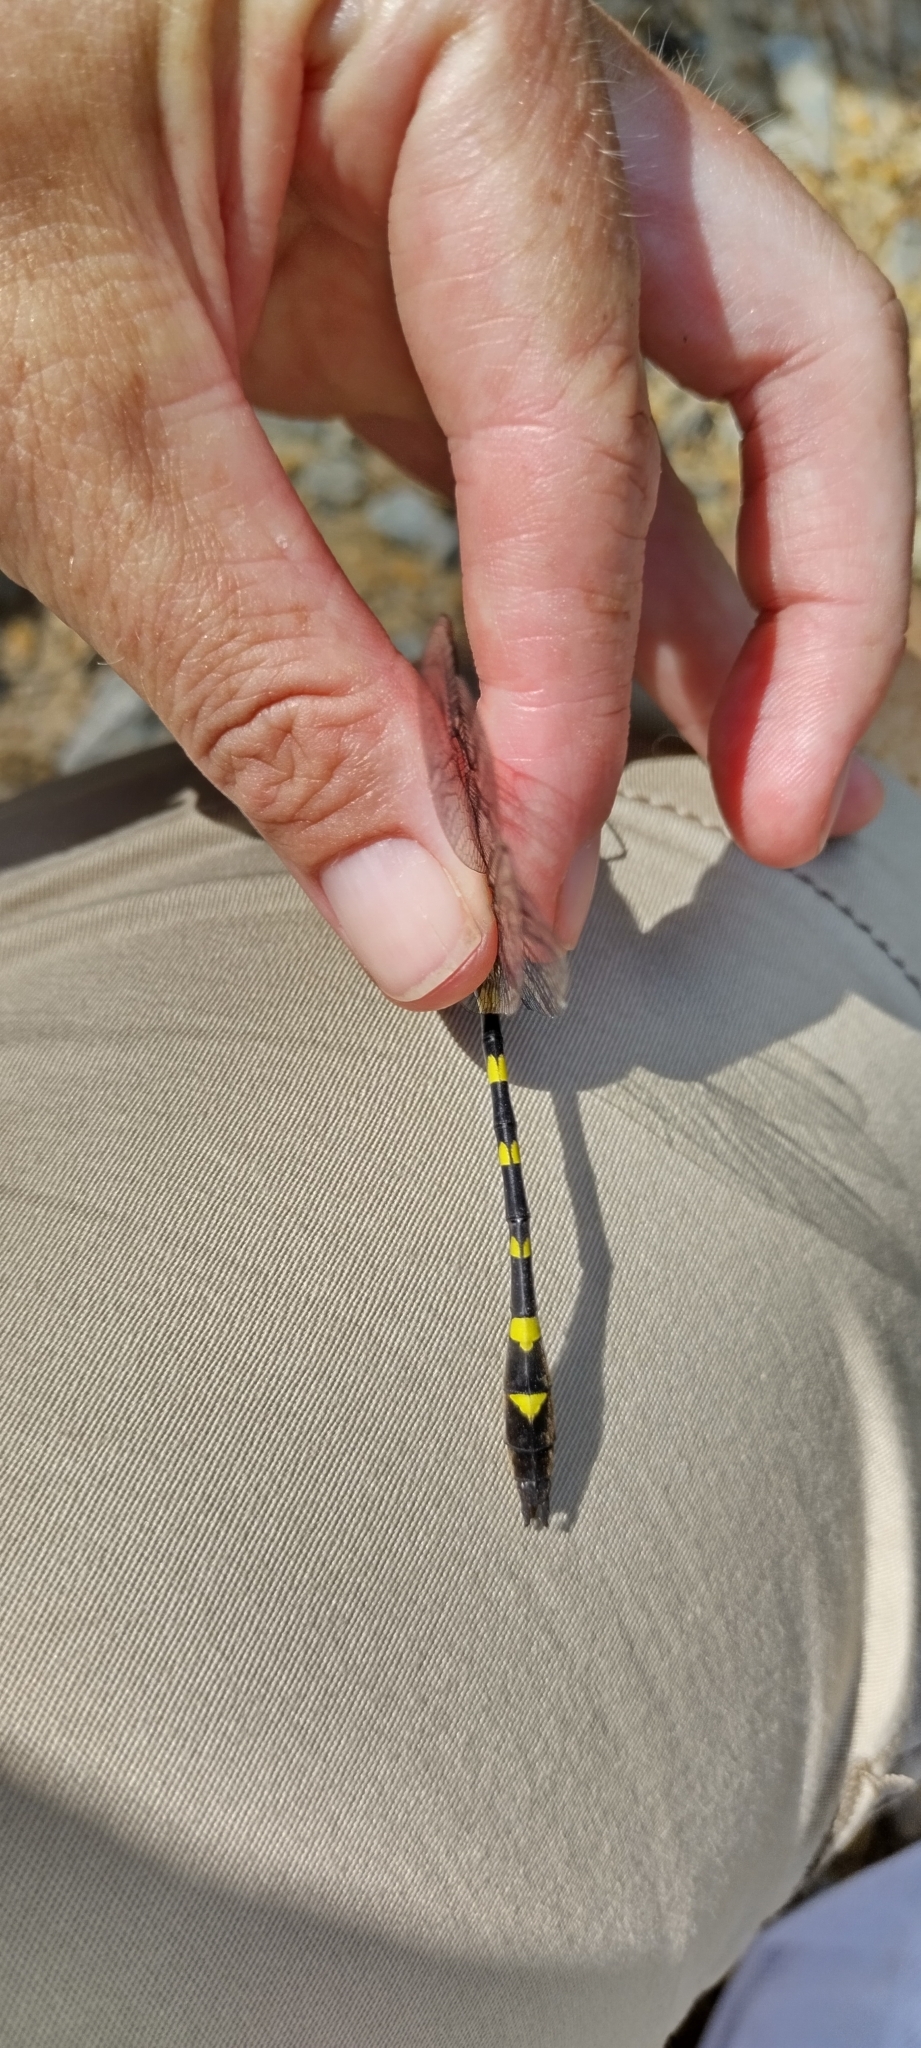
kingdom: Animalia
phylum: Arthropoda
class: Insecta
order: Odonata
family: Macromiidae
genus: Macromia
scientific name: Macromia illinoiensis
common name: Swift river cruiser
